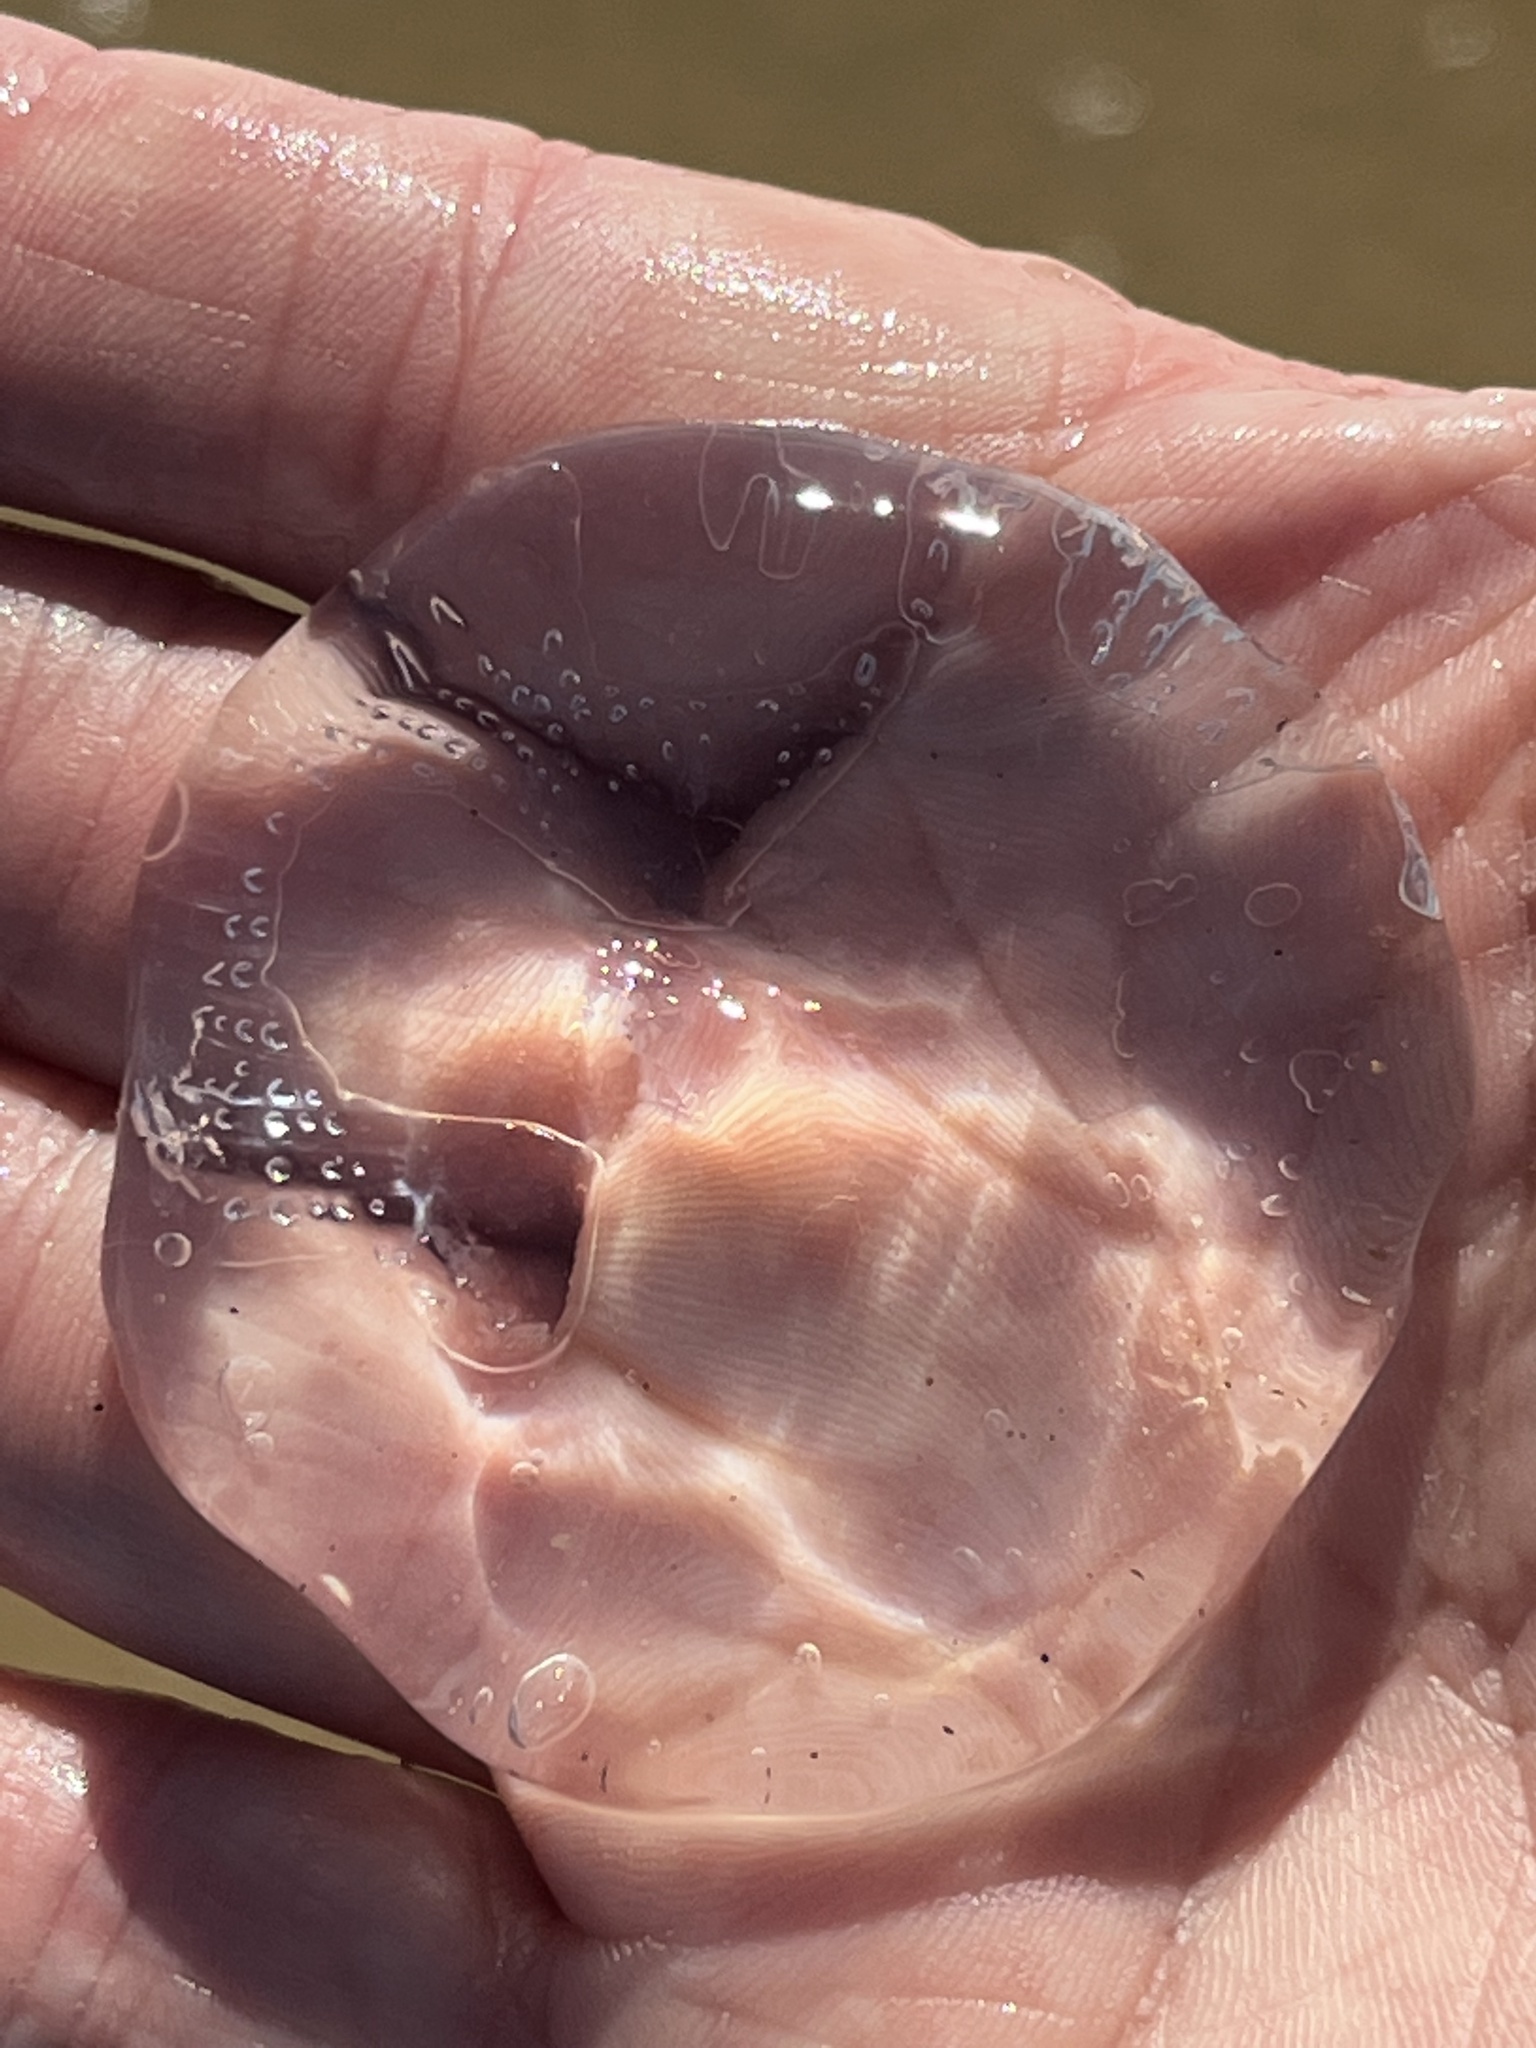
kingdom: Animalia
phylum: Cnidaria
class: Hydrozoa
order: Leptothecata
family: Aequoreidae
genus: Rhacostoma
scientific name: Rhacostoma atlanticum
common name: Lined water jelly
